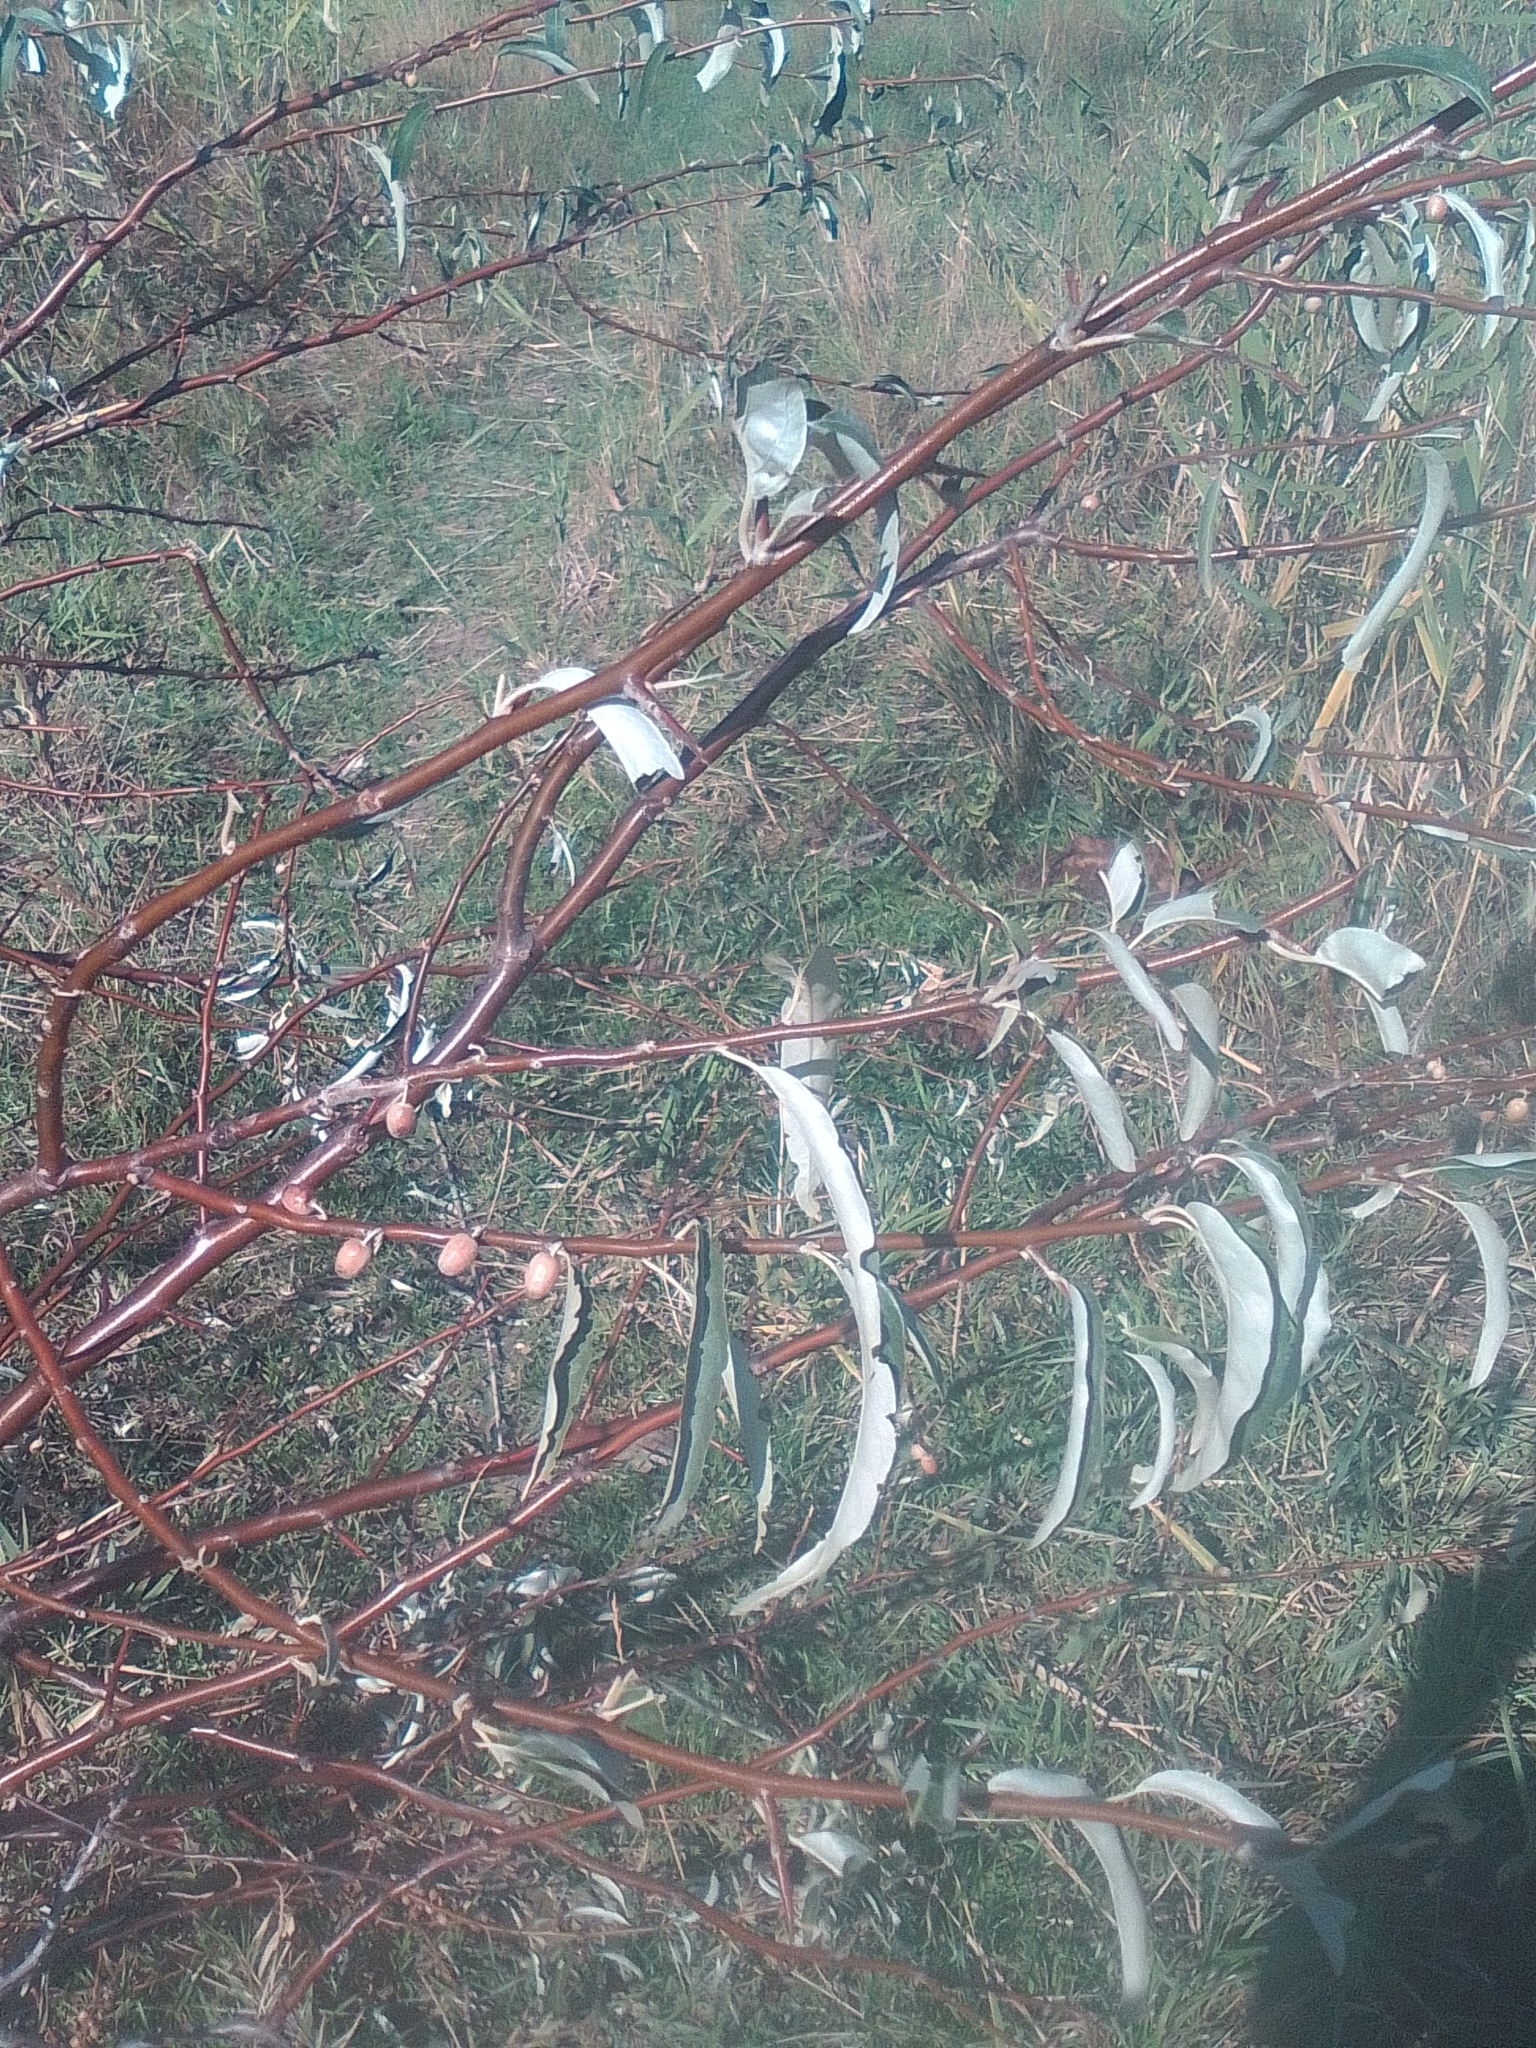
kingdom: Plantae
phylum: Tracheophyta
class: Magnoliopsida
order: Rosales
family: Elaeagnaceae
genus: Elaeagnus
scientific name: Elaeagnus angustifolia
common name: Russian olive
